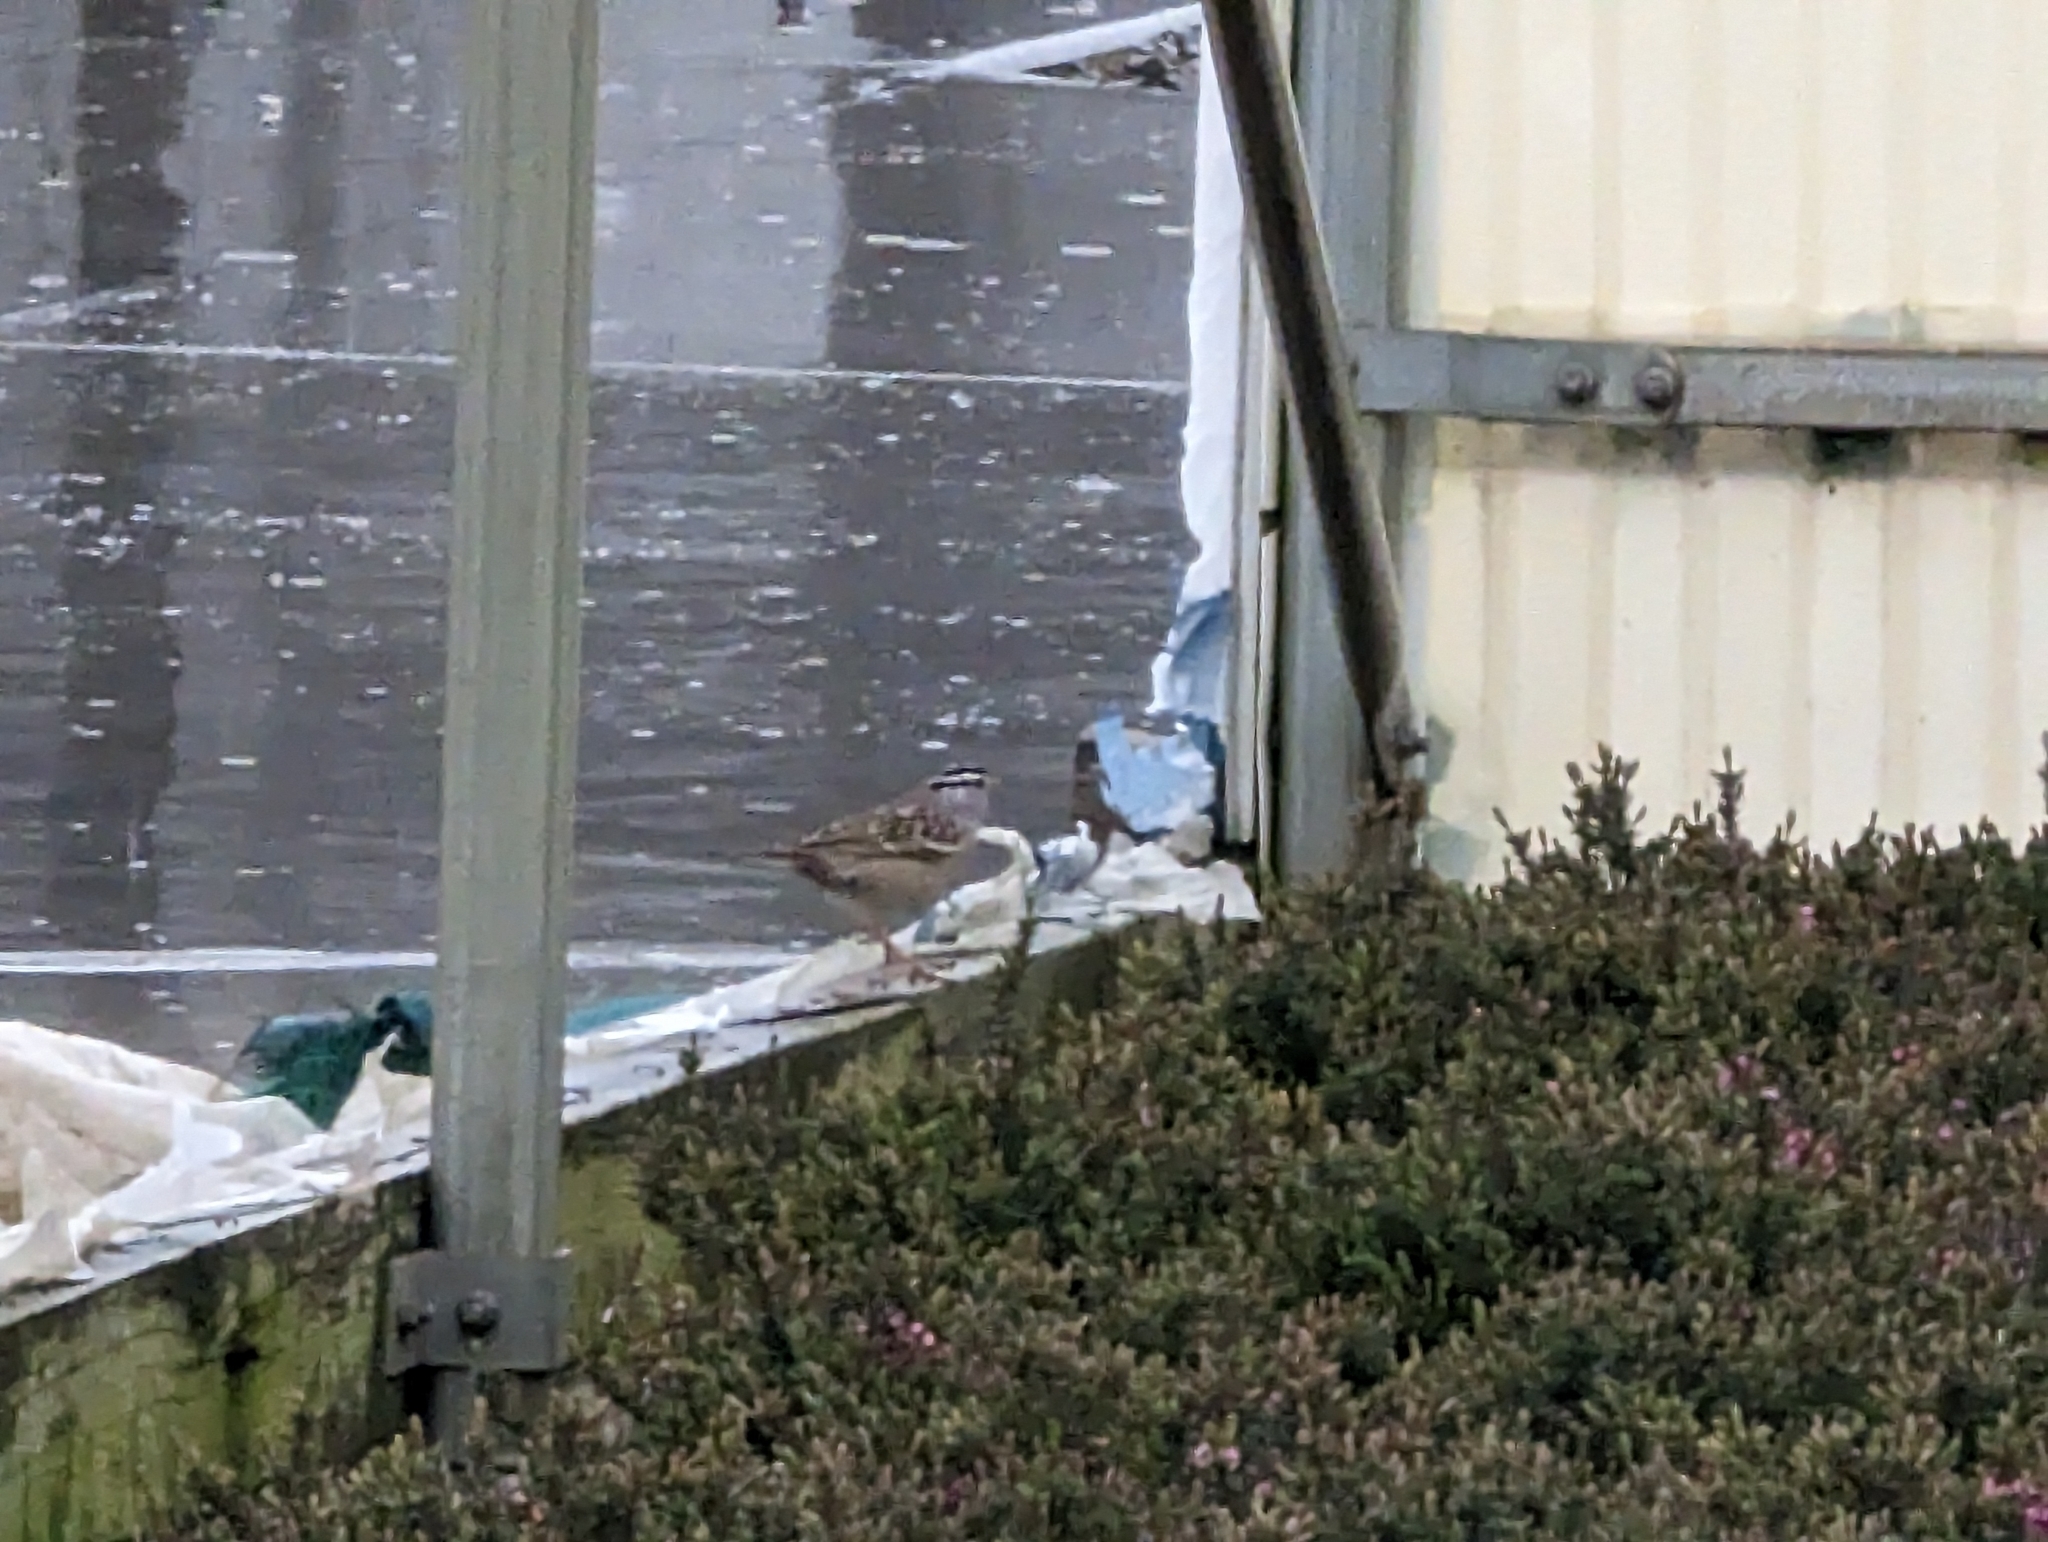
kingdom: Animalia
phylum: Chordata
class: Aves
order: Passeriformes
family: Passerellidae
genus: Zonotrichia
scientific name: Zonotrichia leucophrys
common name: White-crowned sparrow
